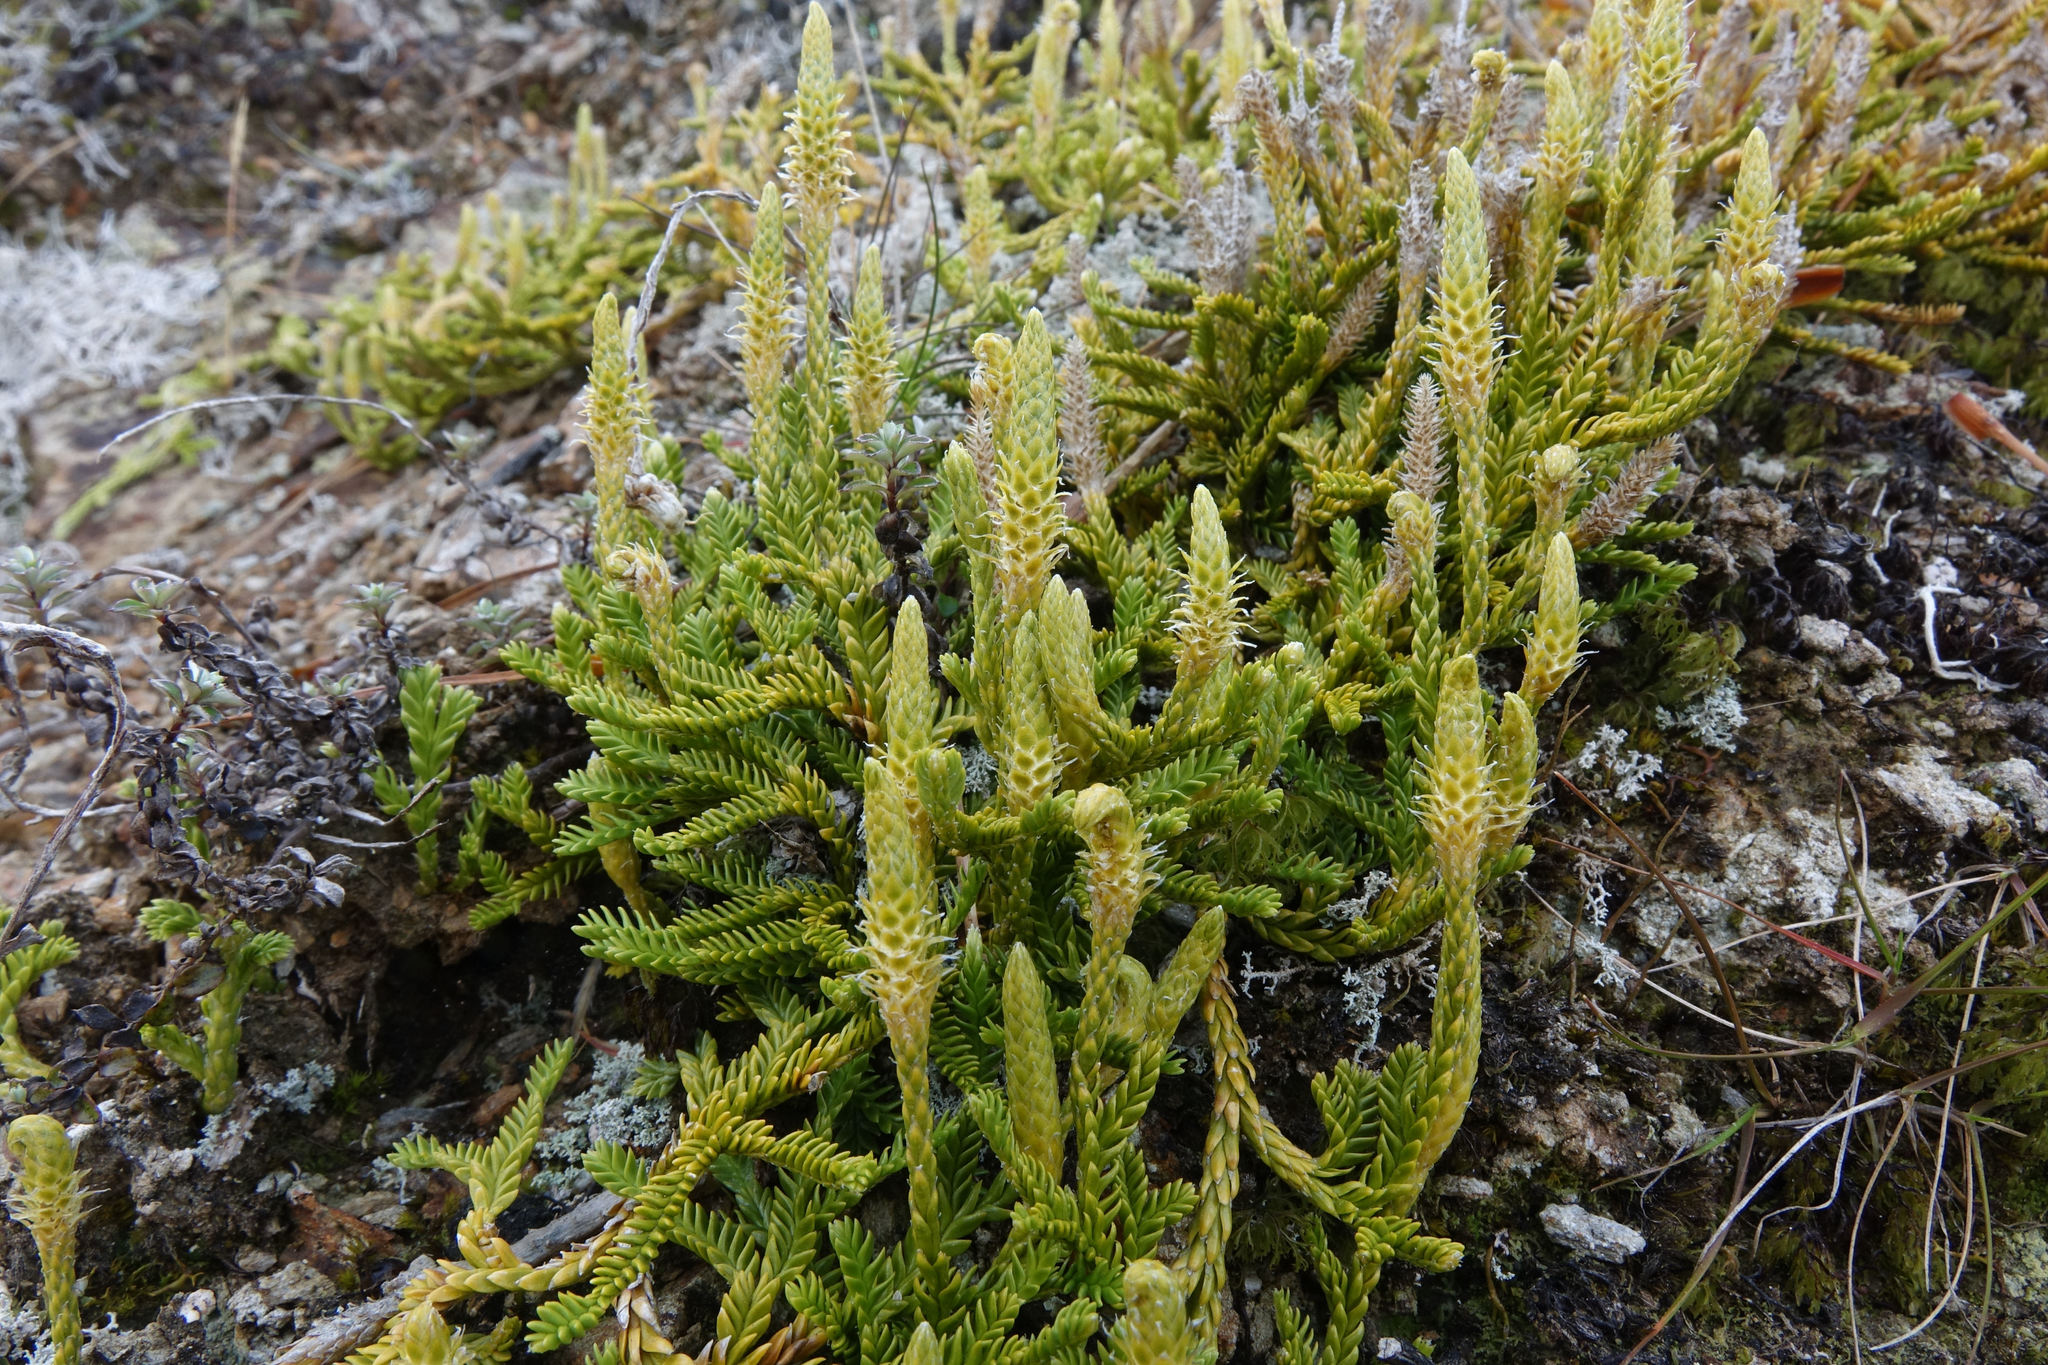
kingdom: Plantae
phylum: Tracheophyta
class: Lycopodiopsida
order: Lycopodiales
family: Lycopodiaceae
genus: Diphasium
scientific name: Diphasium scariosum
